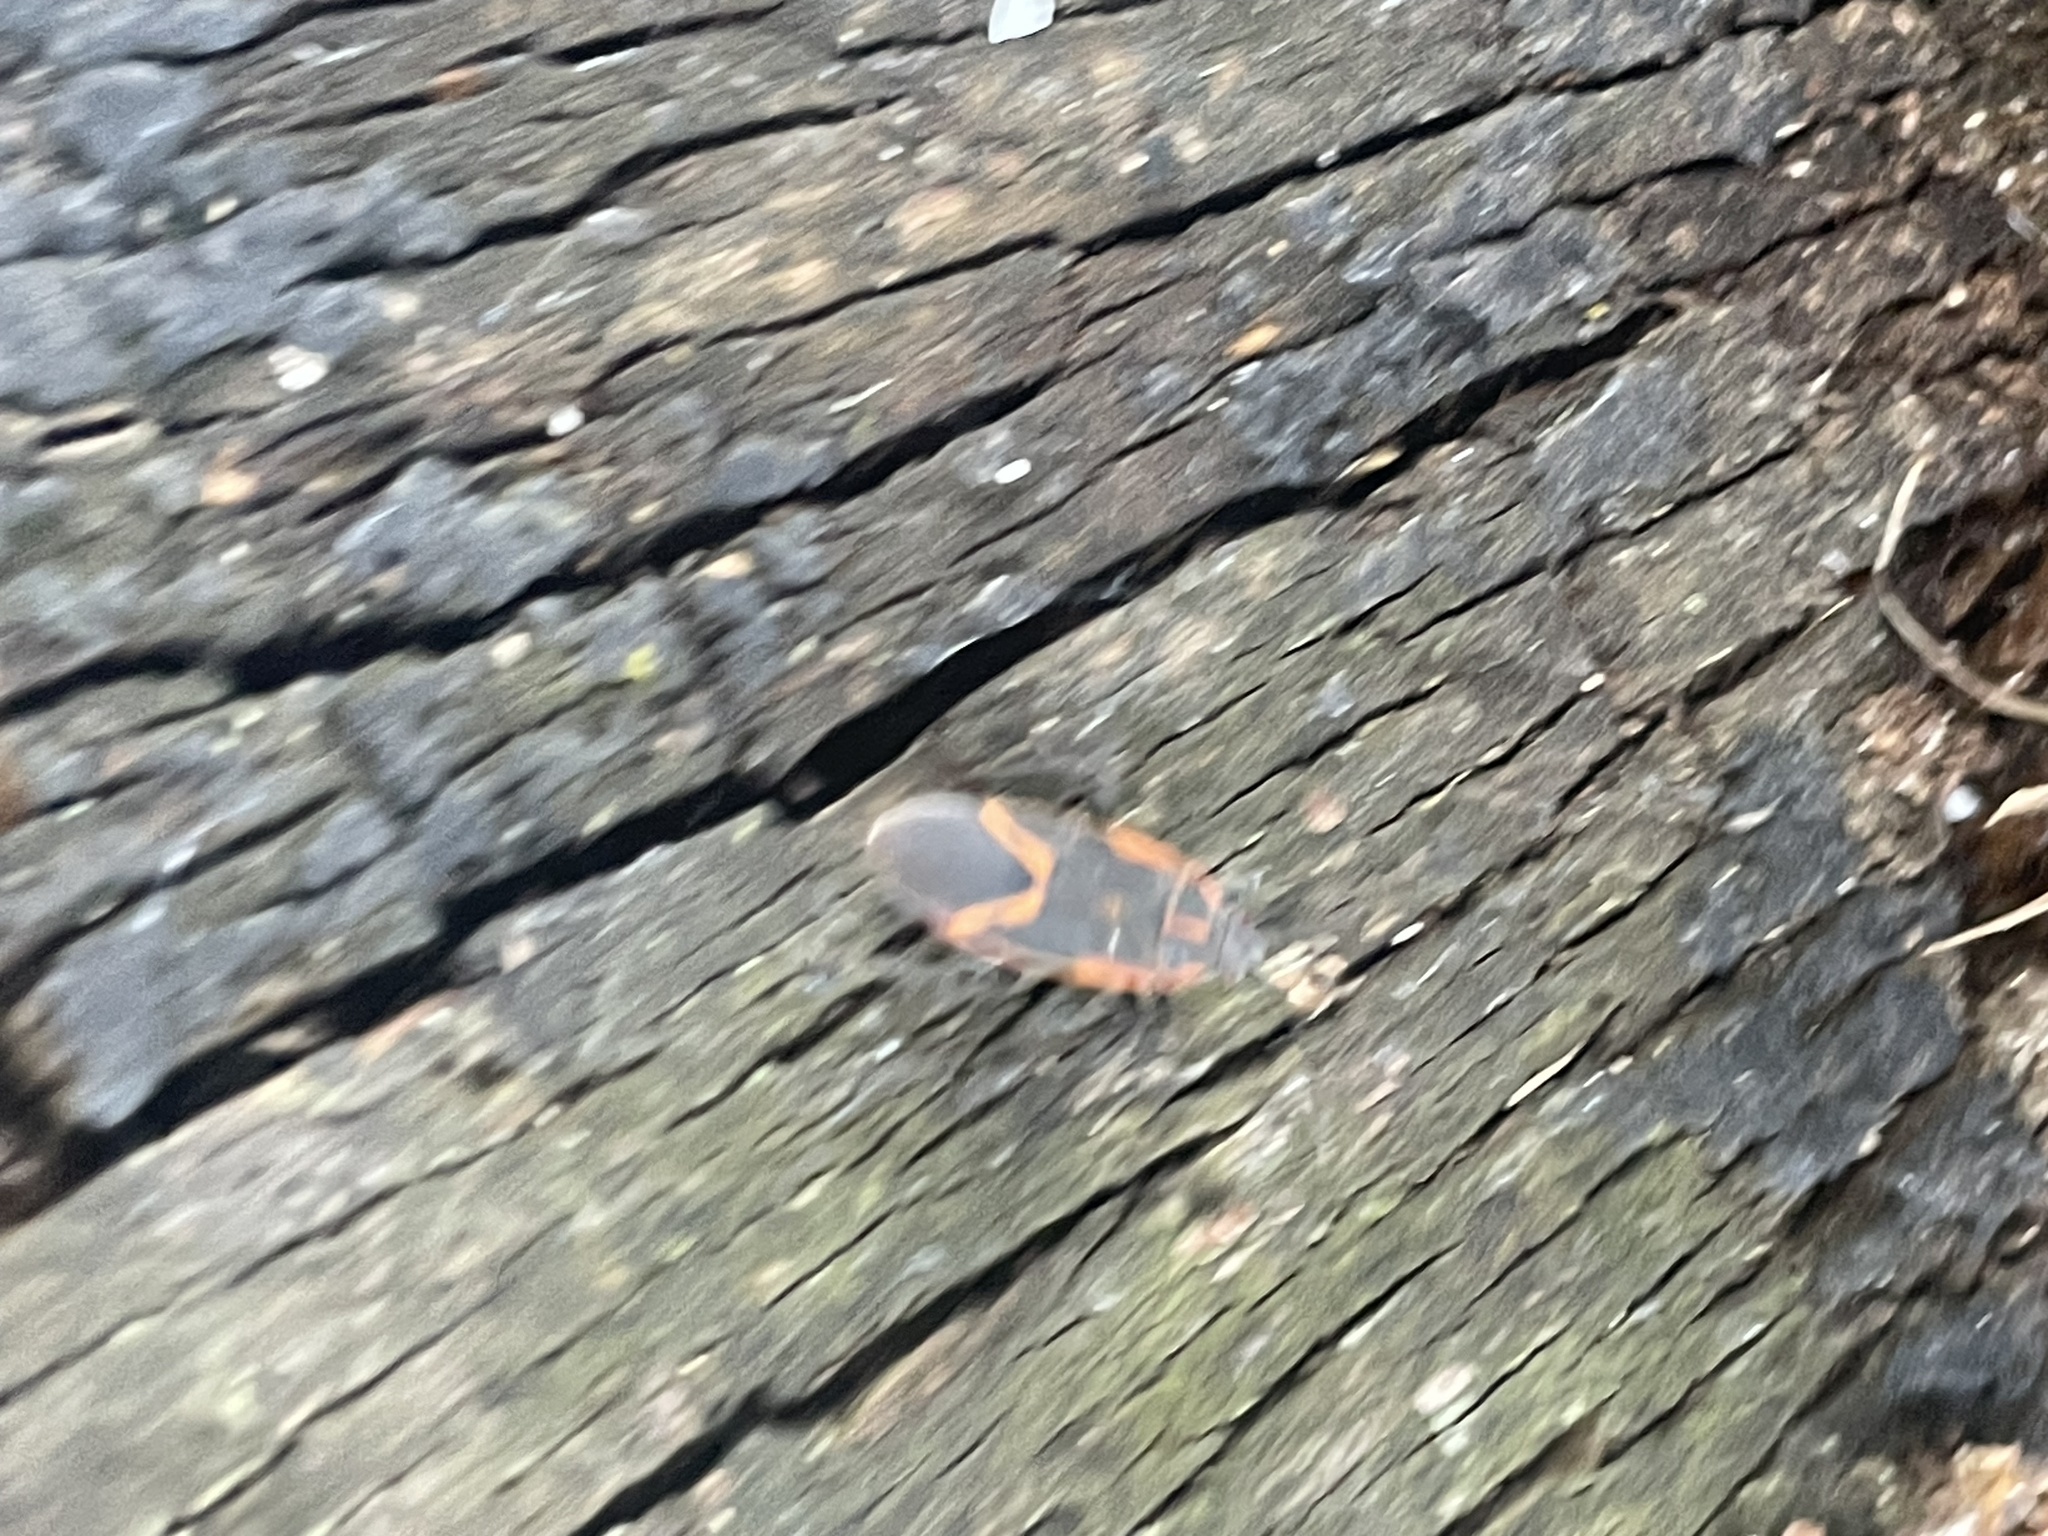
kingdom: Animalia
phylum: Arthropoda
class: Insecta
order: Hemiptera
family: Rhopalidae
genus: Boisea
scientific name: Boisea trivittata
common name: Boxelder bug
